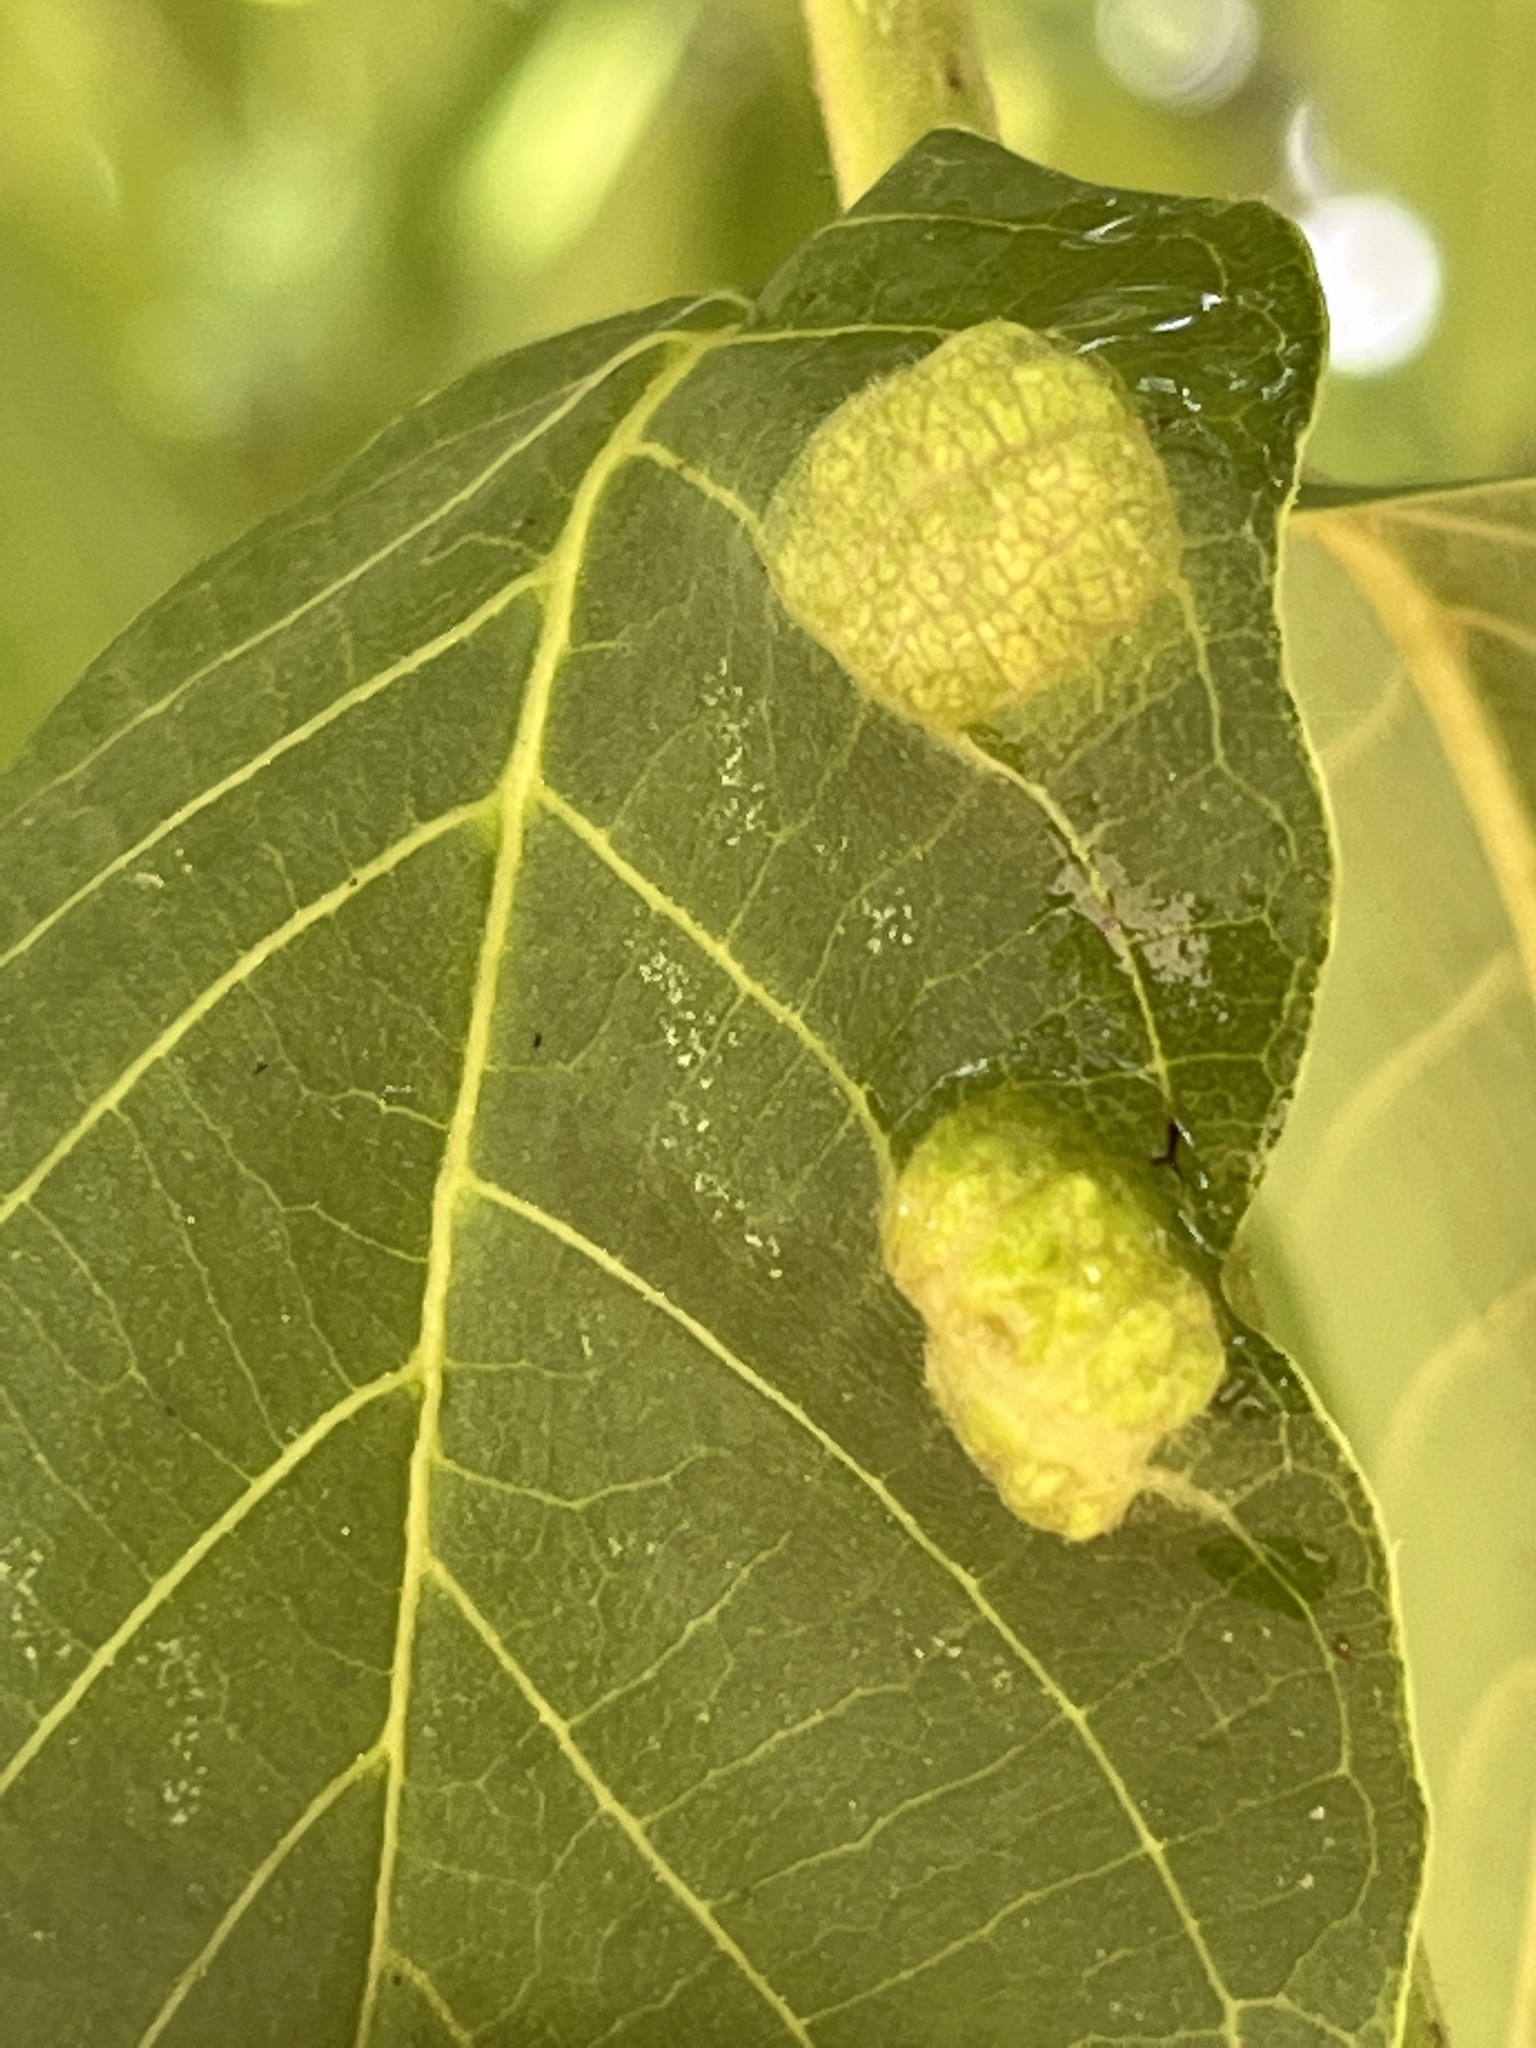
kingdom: Animalia
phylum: Arthropoda
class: Arachnida
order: Trombidiformes
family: Eriophyidae
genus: Aceria
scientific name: Aceria erinea
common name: Persian walnut erineum mite
